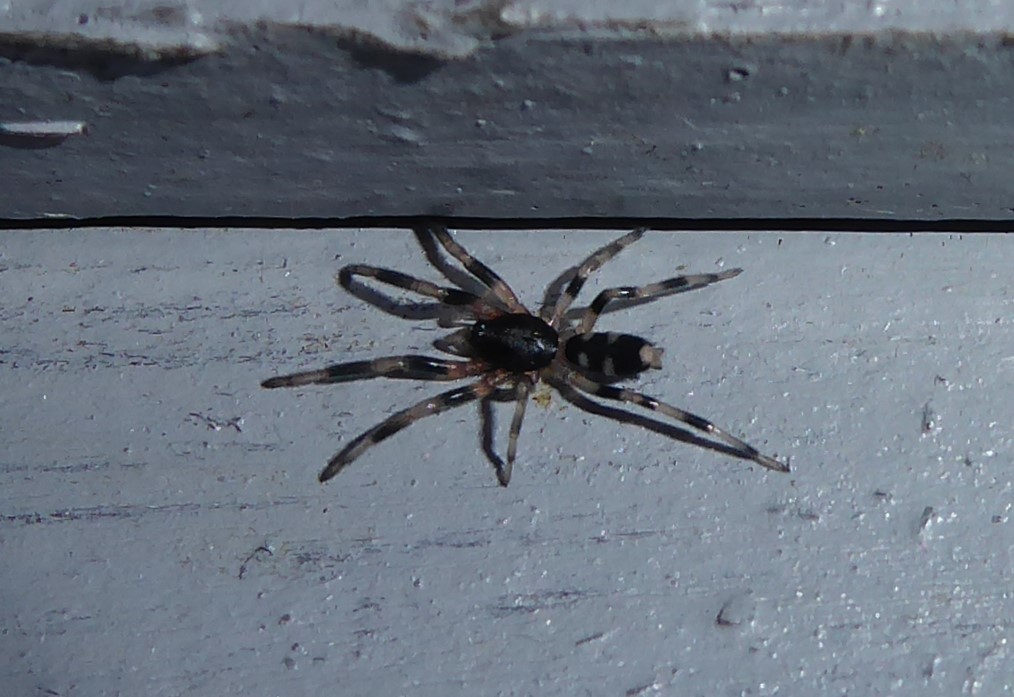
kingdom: Animalia
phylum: Arthropoda
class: Arachnida
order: Araneae
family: Lamponidae
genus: Lampona
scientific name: Lampona cylindrata
